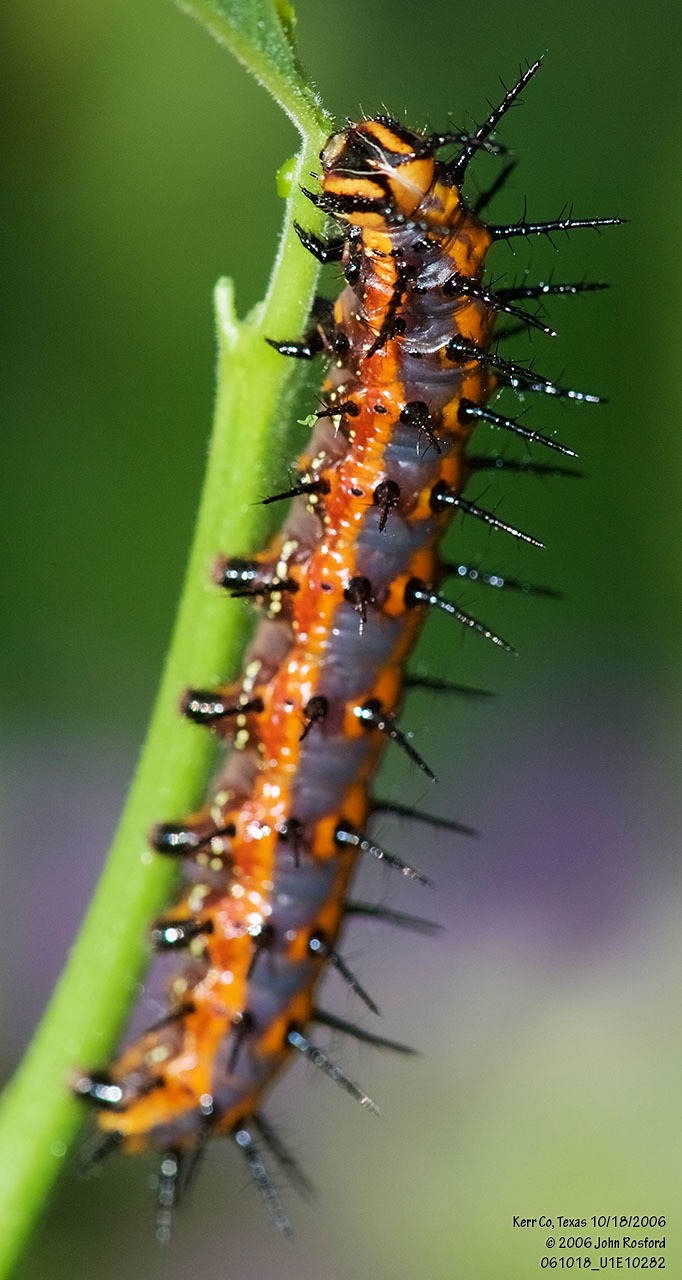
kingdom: Animalia
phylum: Arthropoda
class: Insecta
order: Lepidoptera
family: Nymphalidae
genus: Dione
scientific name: Dione vanillae
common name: Gulf fritillary
